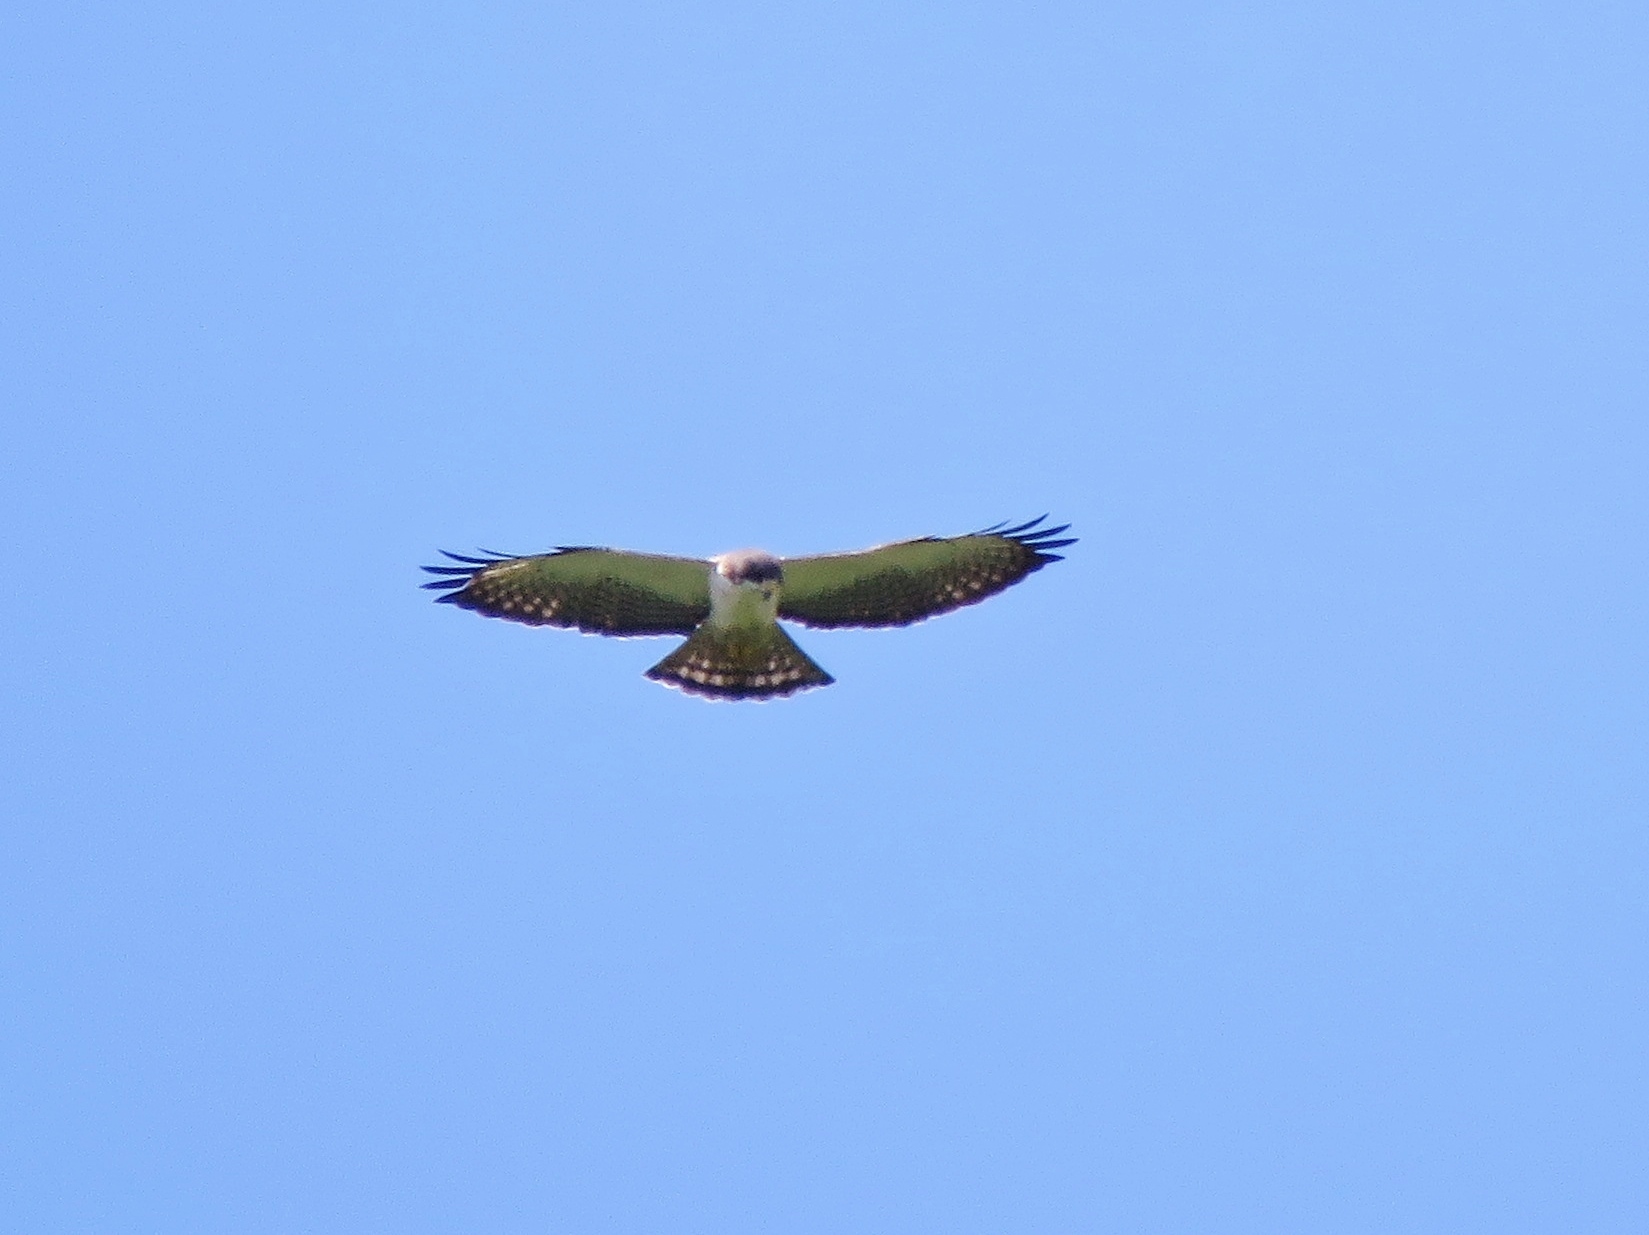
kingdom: Animalia
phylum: Chordata
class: Aves
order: Accipitriformes
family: Accipitridae
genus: Buteo
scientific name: Buteo brachyurus
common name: Short-tailed hawk
